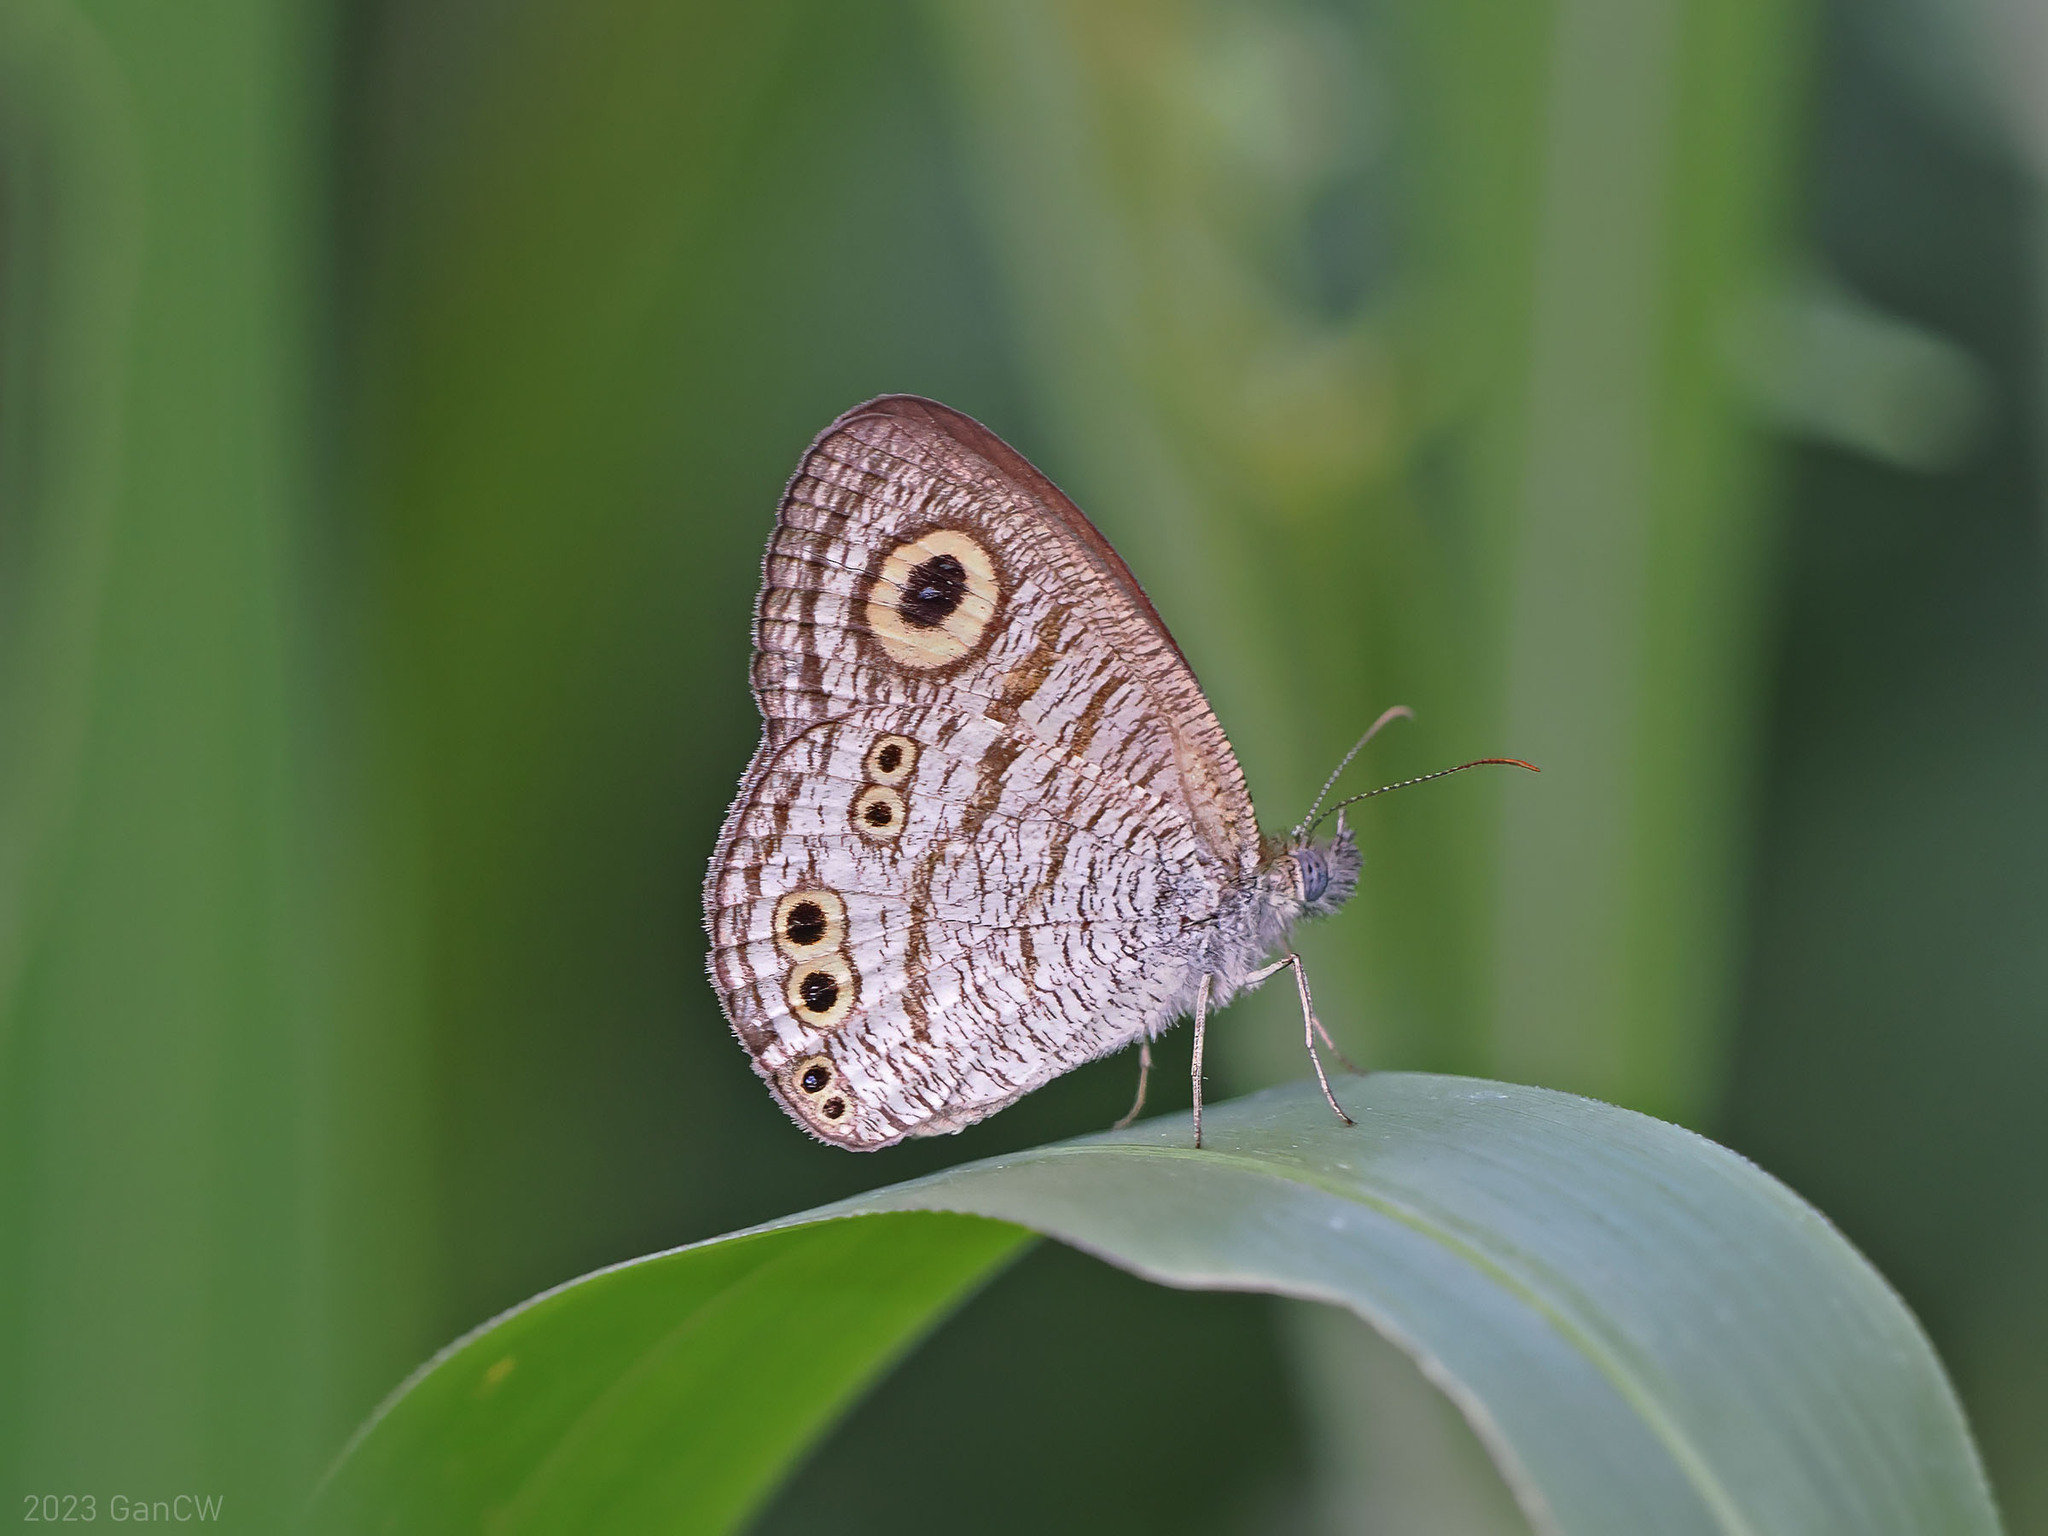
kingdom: Animalia
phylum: Arthropoda
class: Insecta
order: Lepidoptera
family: Nymphalidae
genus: Ypthima
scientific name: Ypthima stellera
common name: Philippine five-ring
